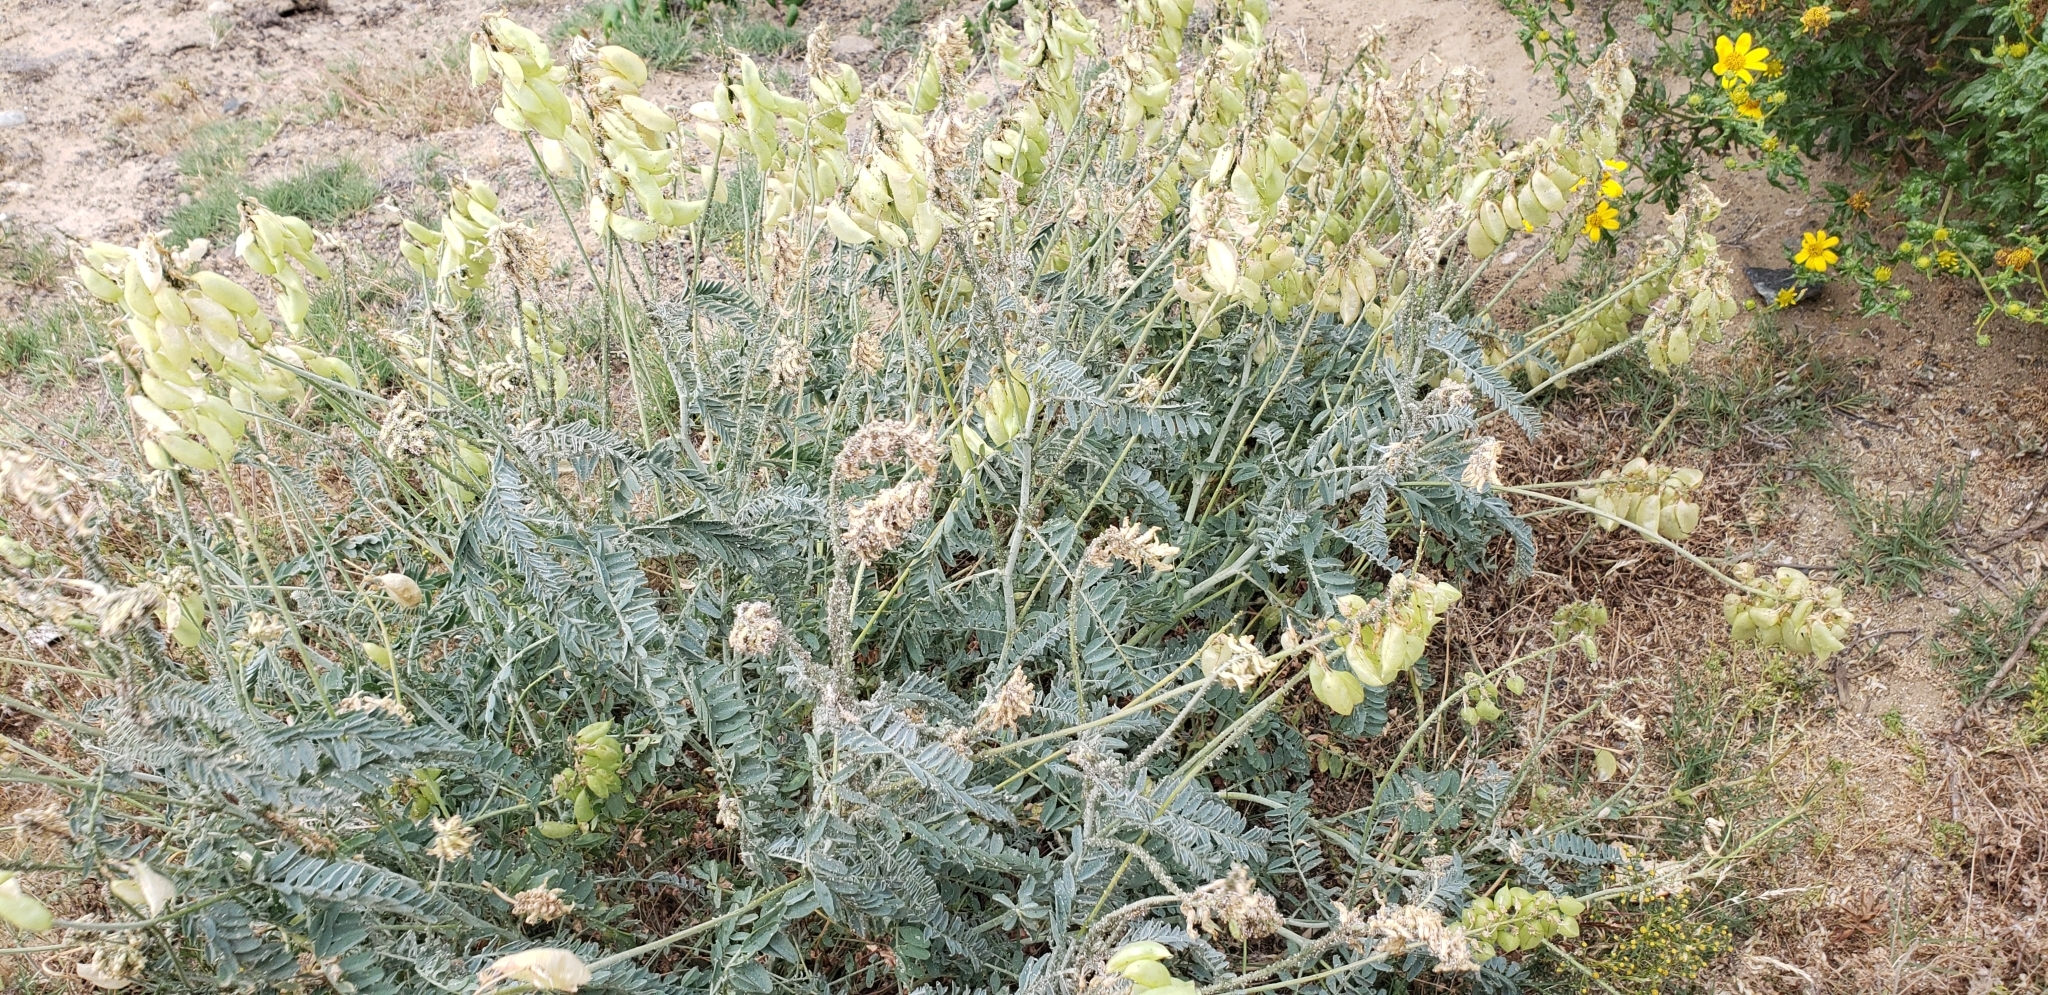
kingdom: Plantae
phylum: Tracheophyta
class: Magnoliopsida
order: Fabales
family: Fabaceae
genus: Astragalus
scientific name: Astragalus trichopodus
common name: Santa barbara milk-vetch
